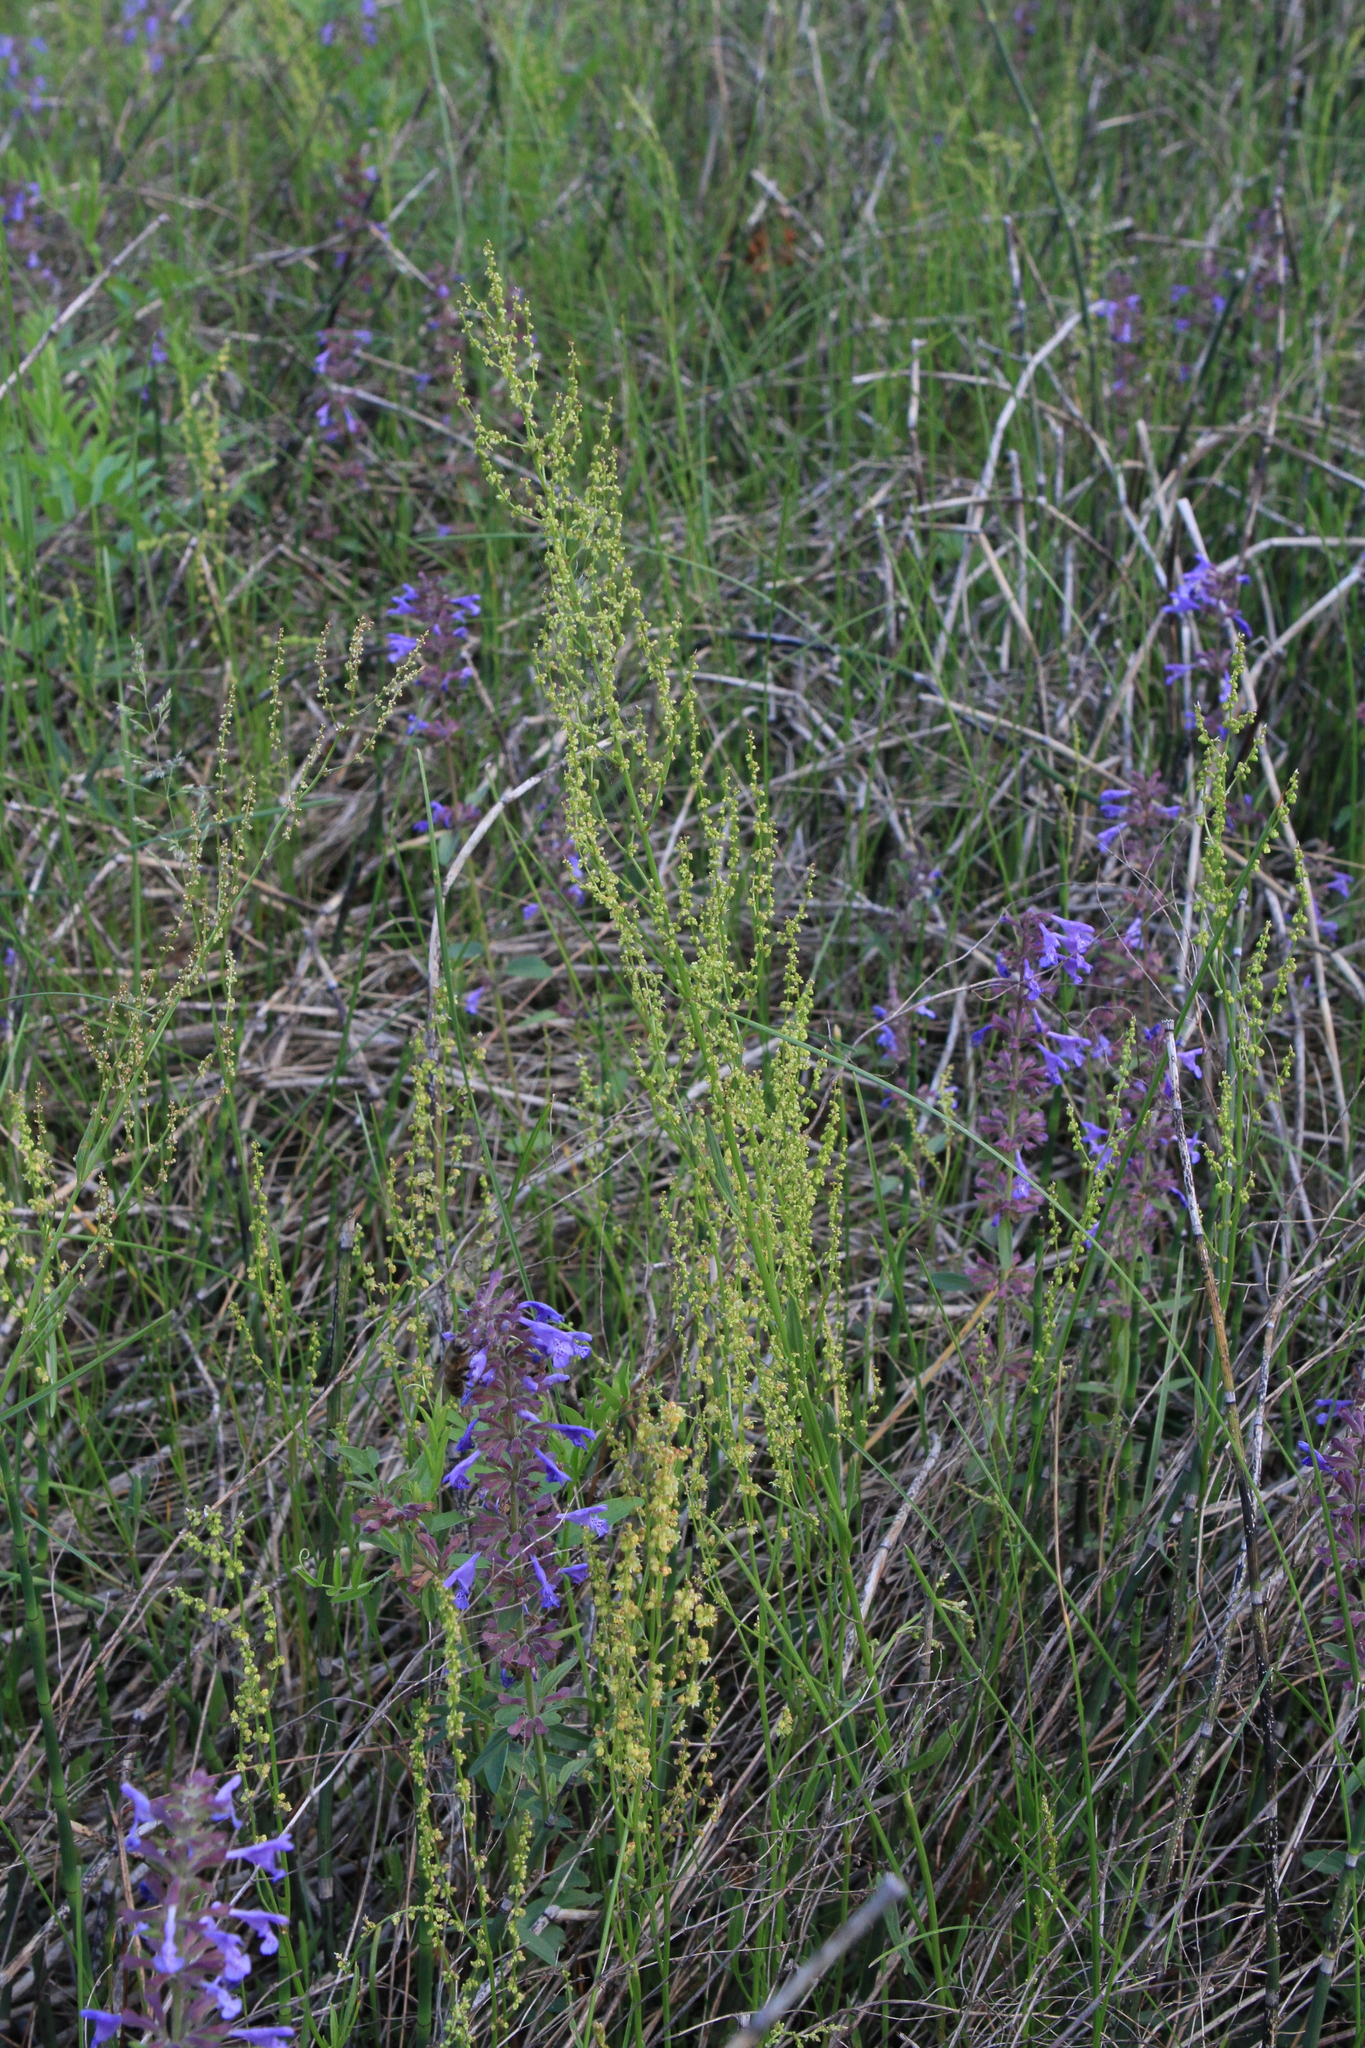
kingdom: Plantae
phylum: Tracheophyta
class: Magnoliopsida
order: Caryophyllales
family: Polygonaceae
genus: Rumex
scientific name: Rumex acetosella
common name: Common sheep sorrel
